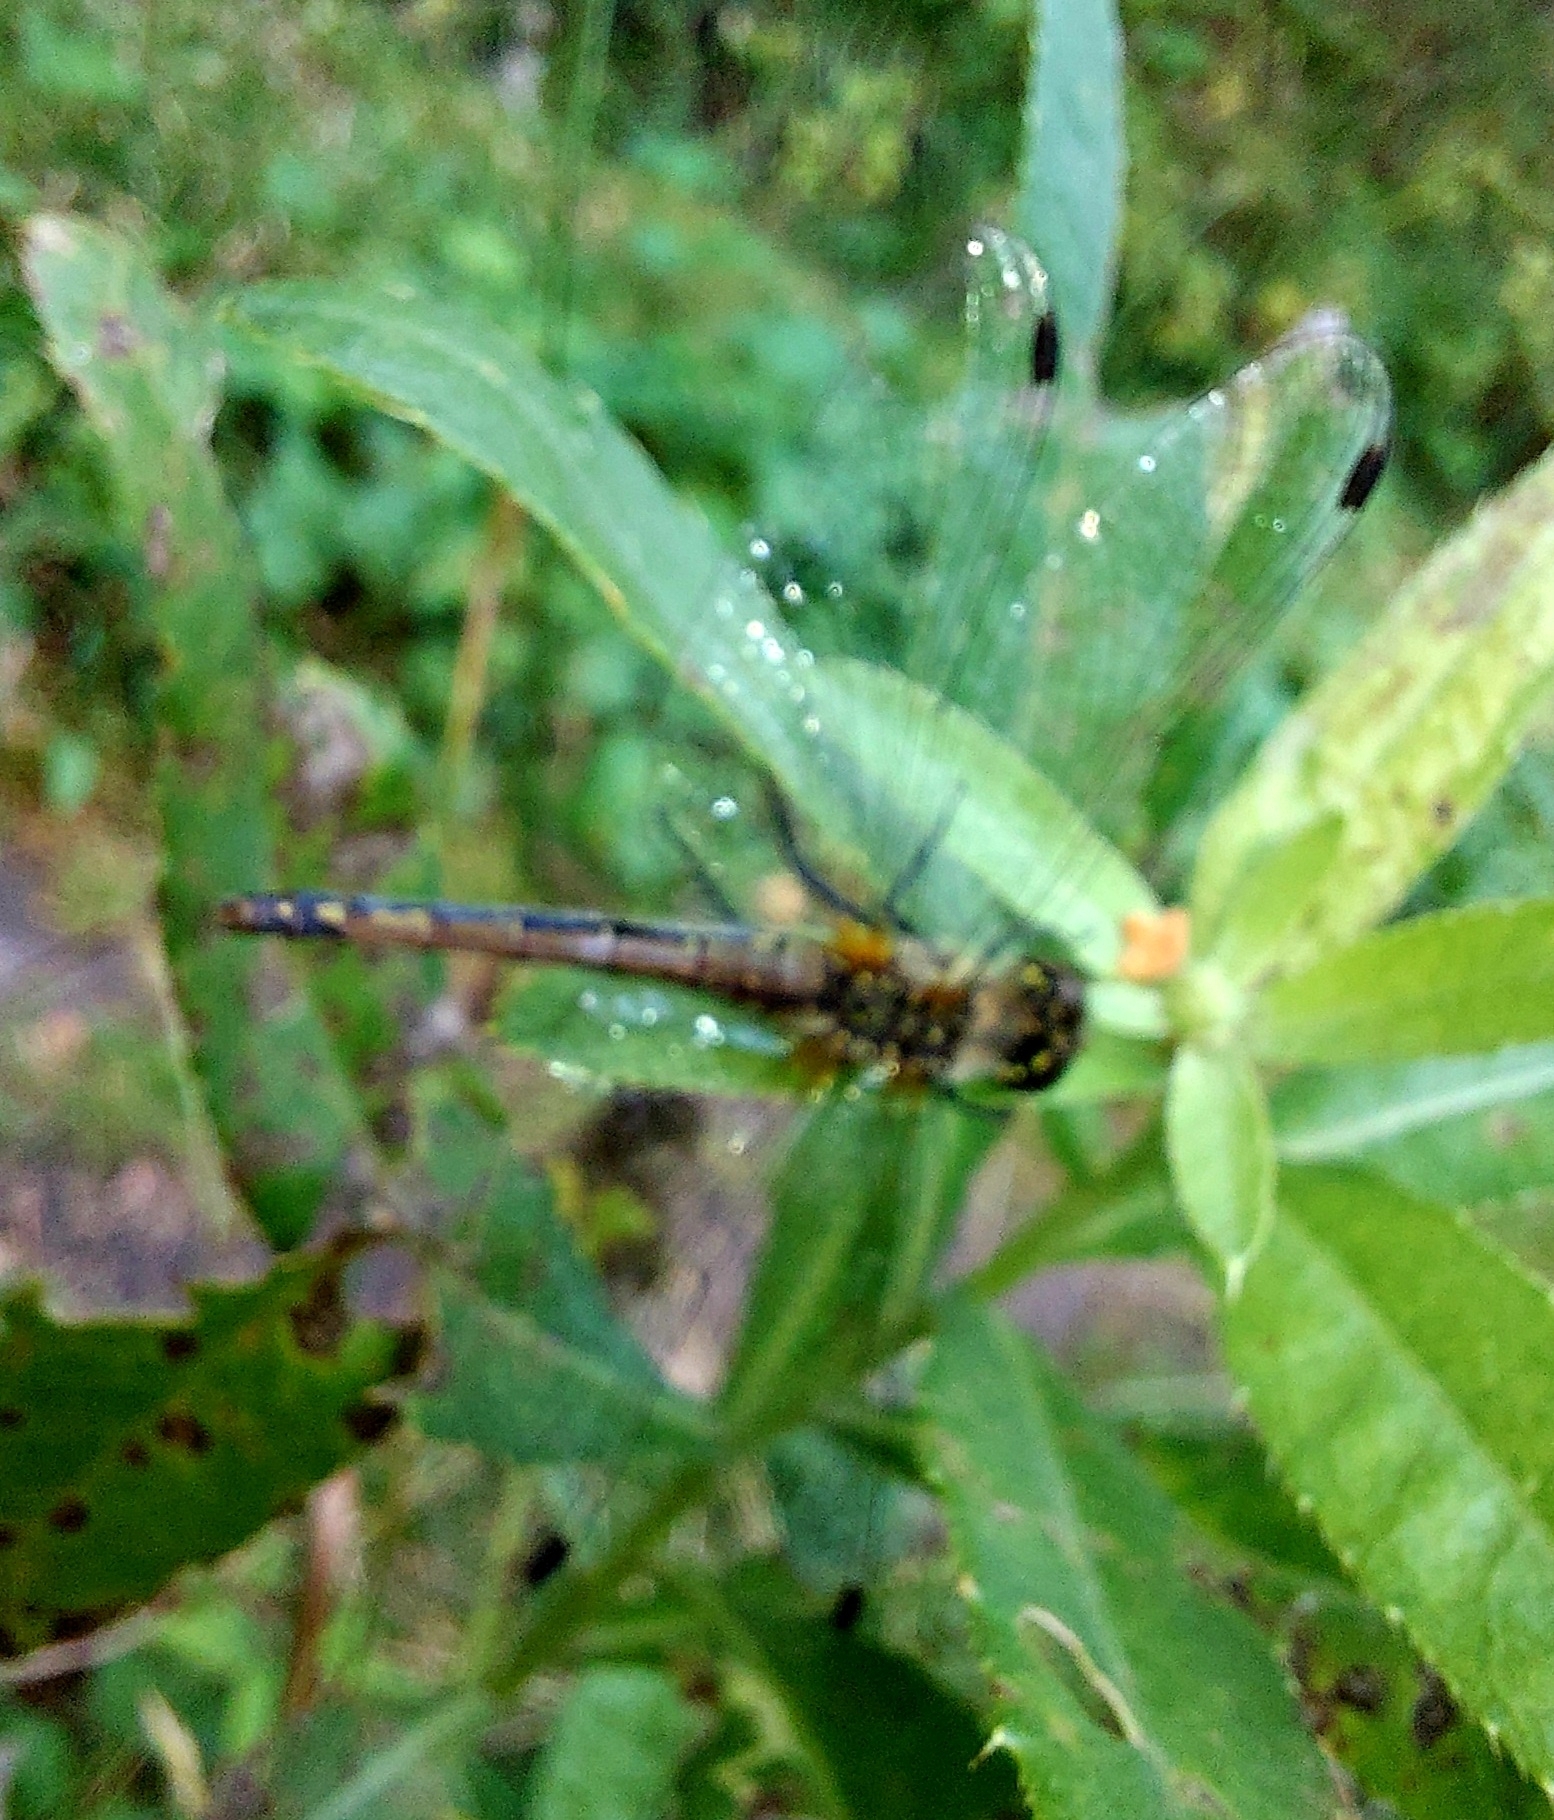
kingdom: Animalia
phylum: Arthropoda
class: Insecta
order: Odonata
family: Libellulidae
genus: Sympetrum
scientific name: Sympetrum danae
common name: Black darter
